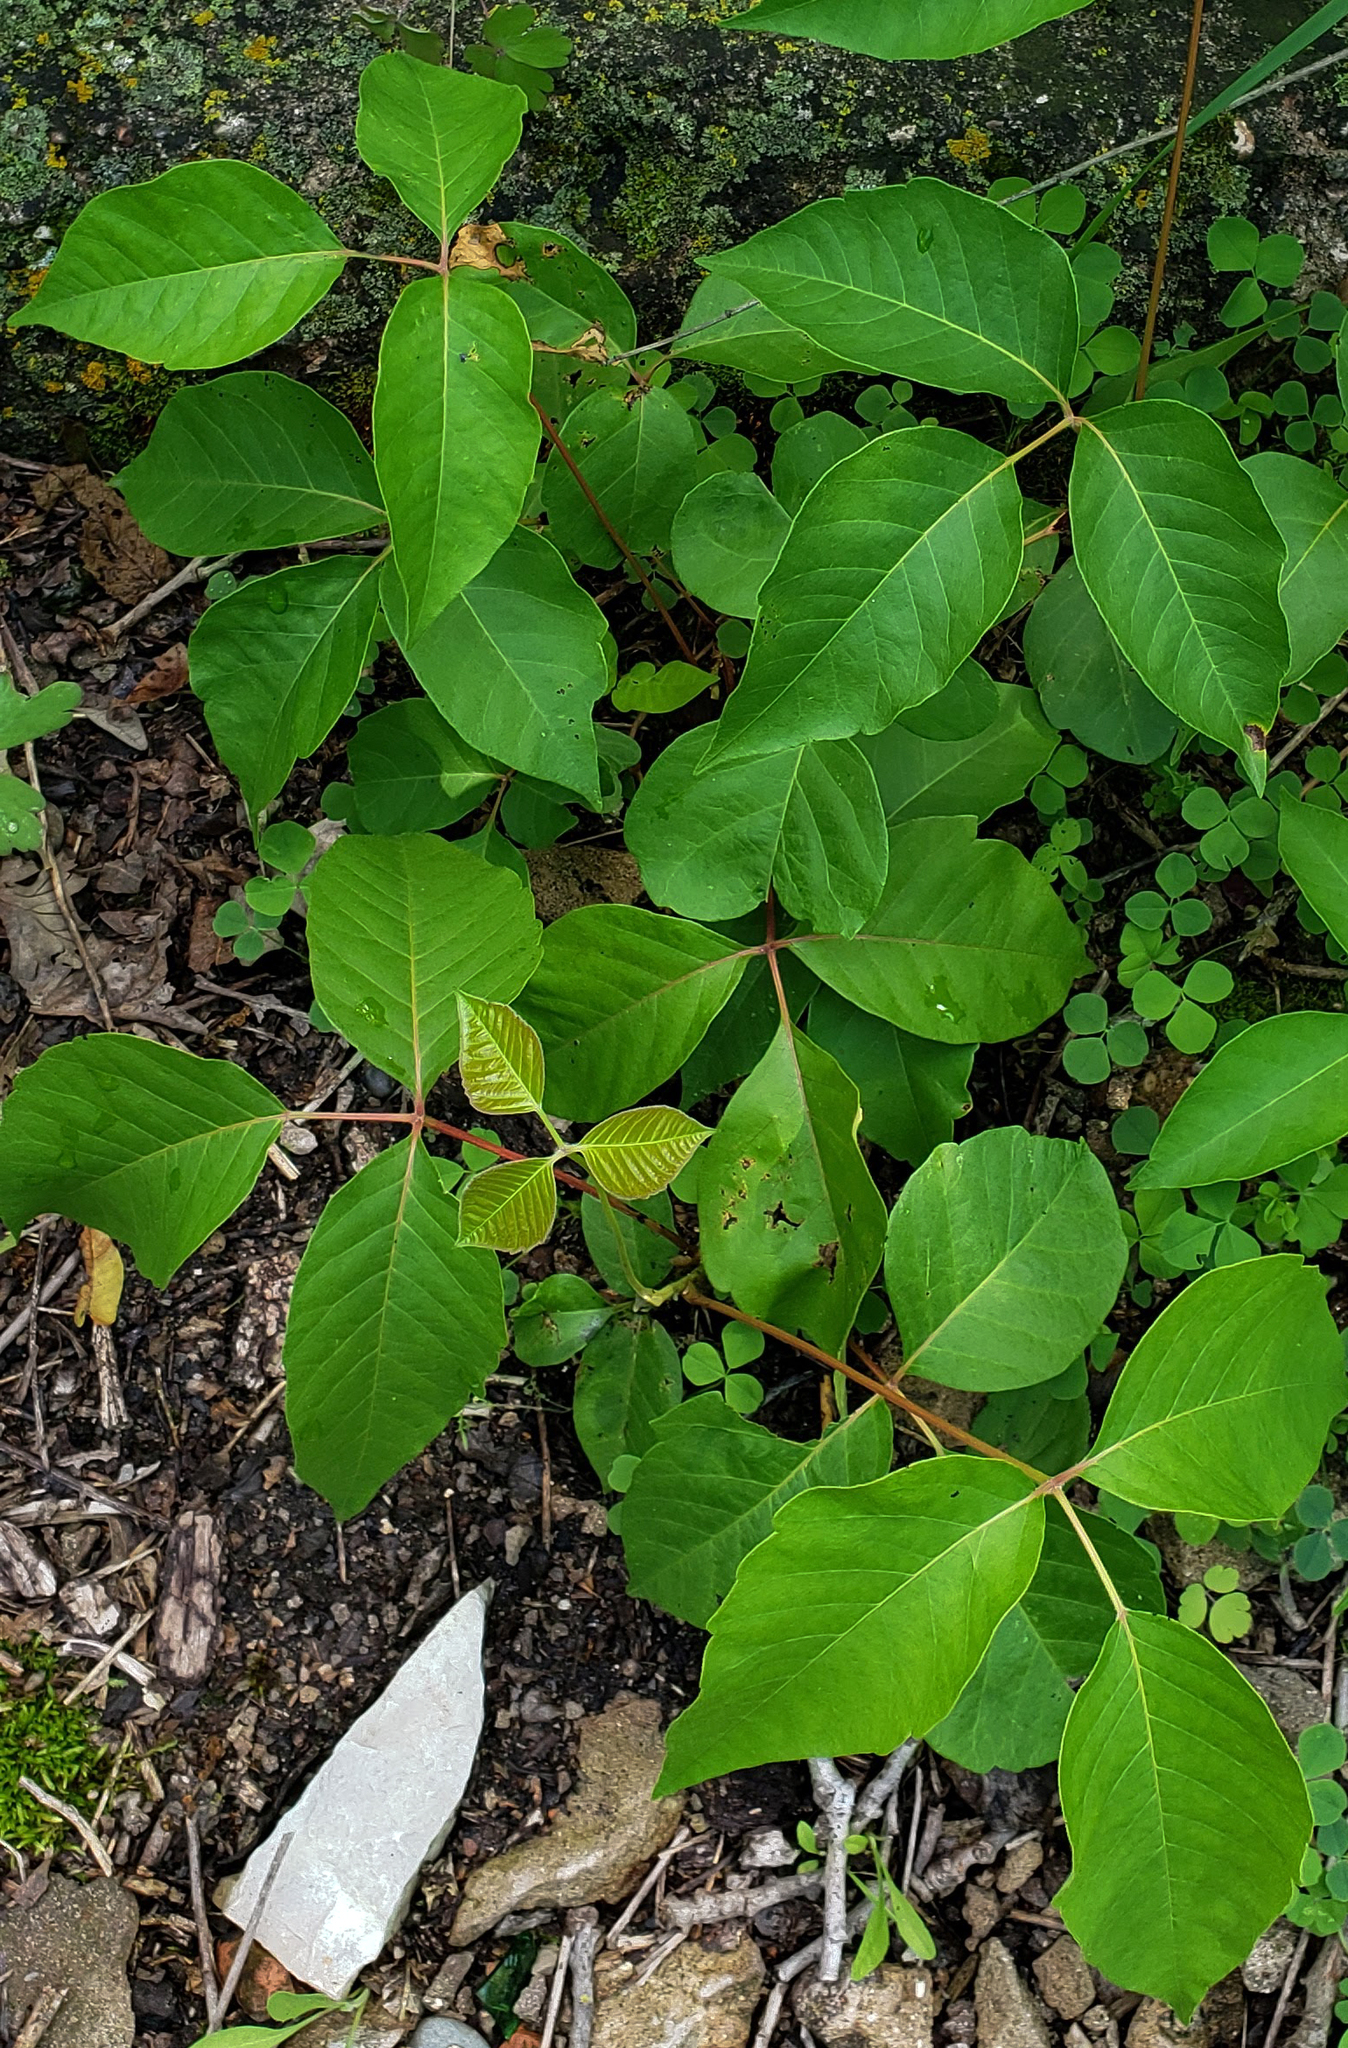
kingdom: Plantae
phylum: Tracheophyta
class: Magnoliopsida
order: Sapindales
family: Anacardiaceae
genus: Toxicodendron
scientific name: Toxicodendron rydbergii
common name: Rydberg's poison-ivy
